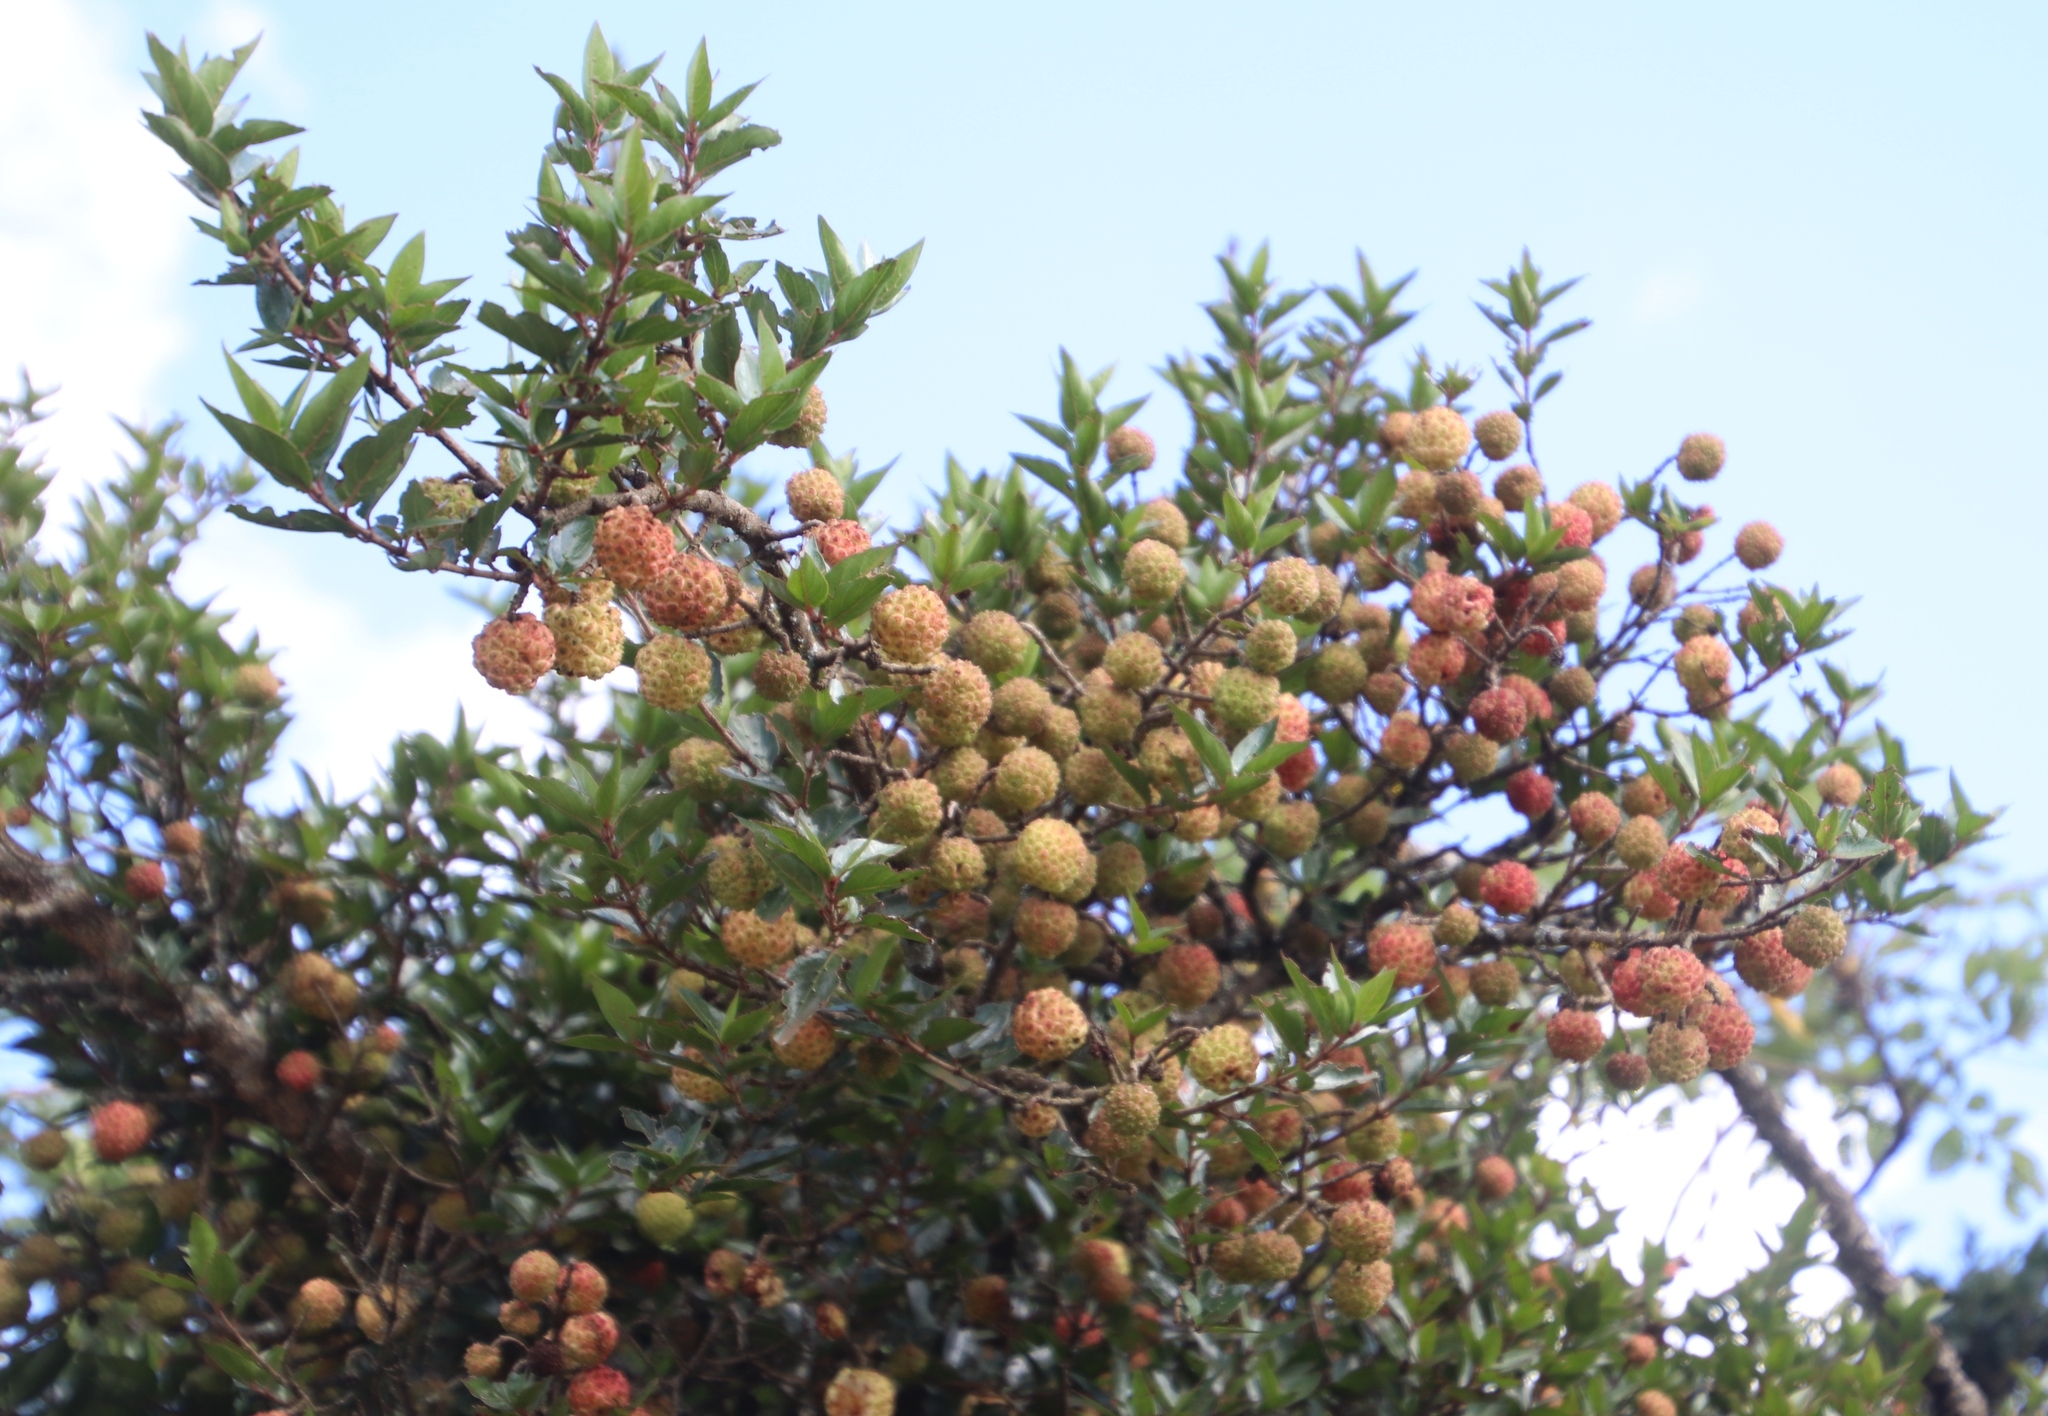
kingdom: Plantae
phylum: Tracheophyta
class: Magnoliopsida
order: Gentianales
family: Rubiaceae
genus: Cephalanthus
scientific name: Cephalanthus natalensis
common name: Strawberry bush
